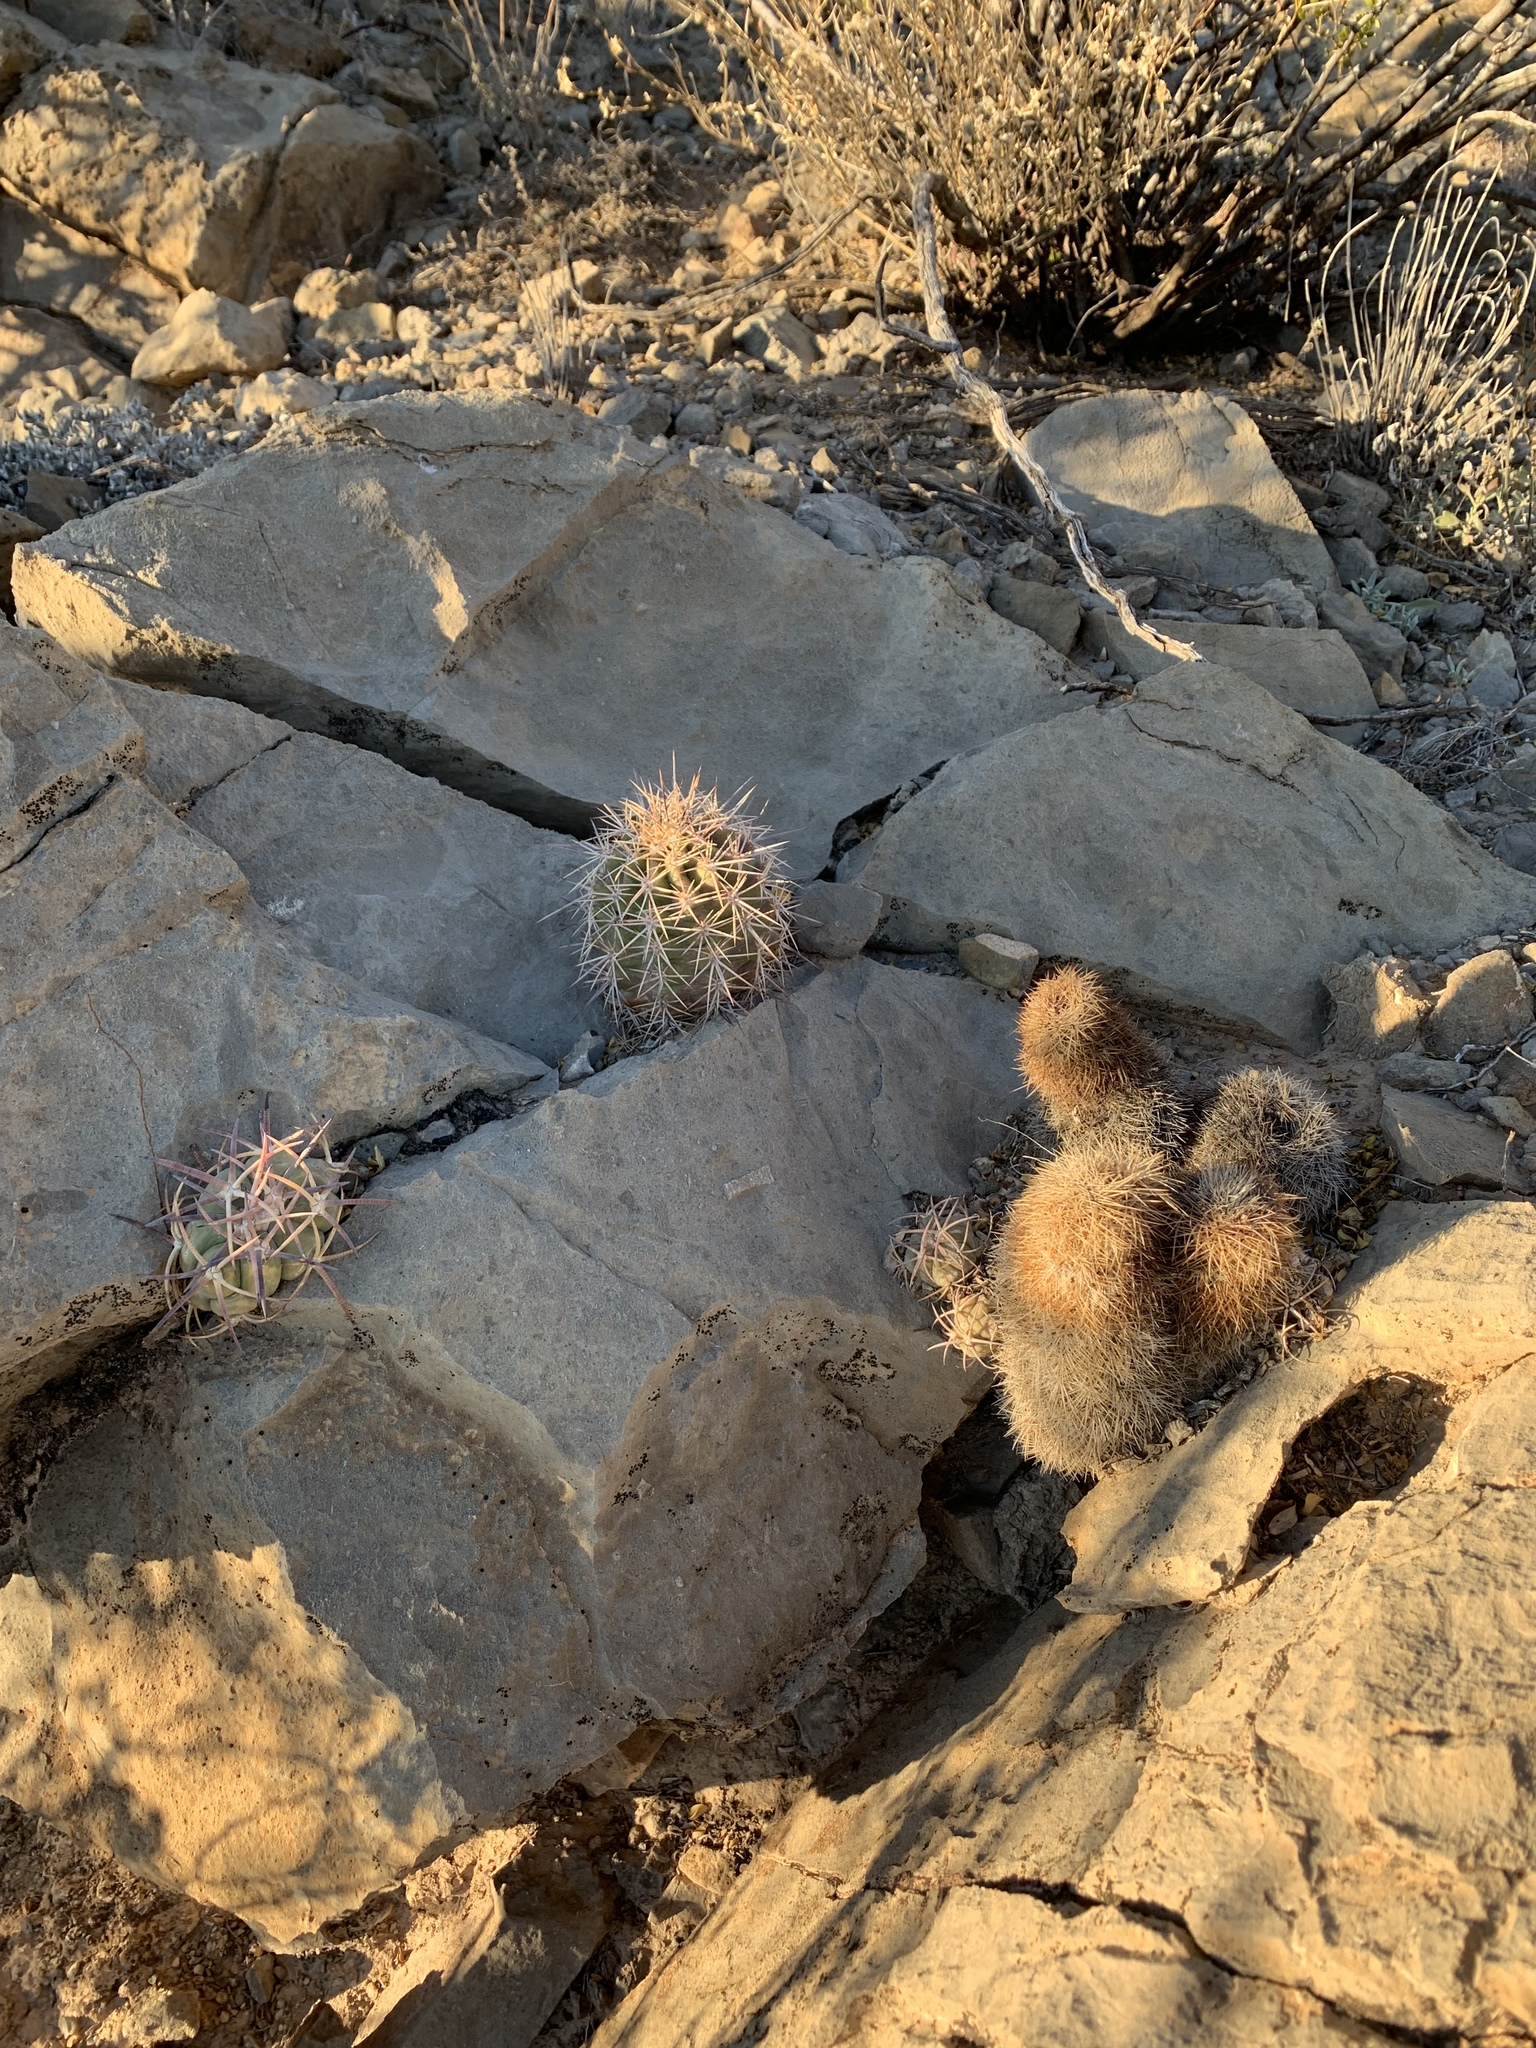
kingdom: Plantae
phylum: Tracheophyta
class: Magnoliopsida
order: Caryophyllales
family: Cactaceae
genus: Echinocactus
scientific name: Echinocactus horizonthalonius
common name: Devilshead
